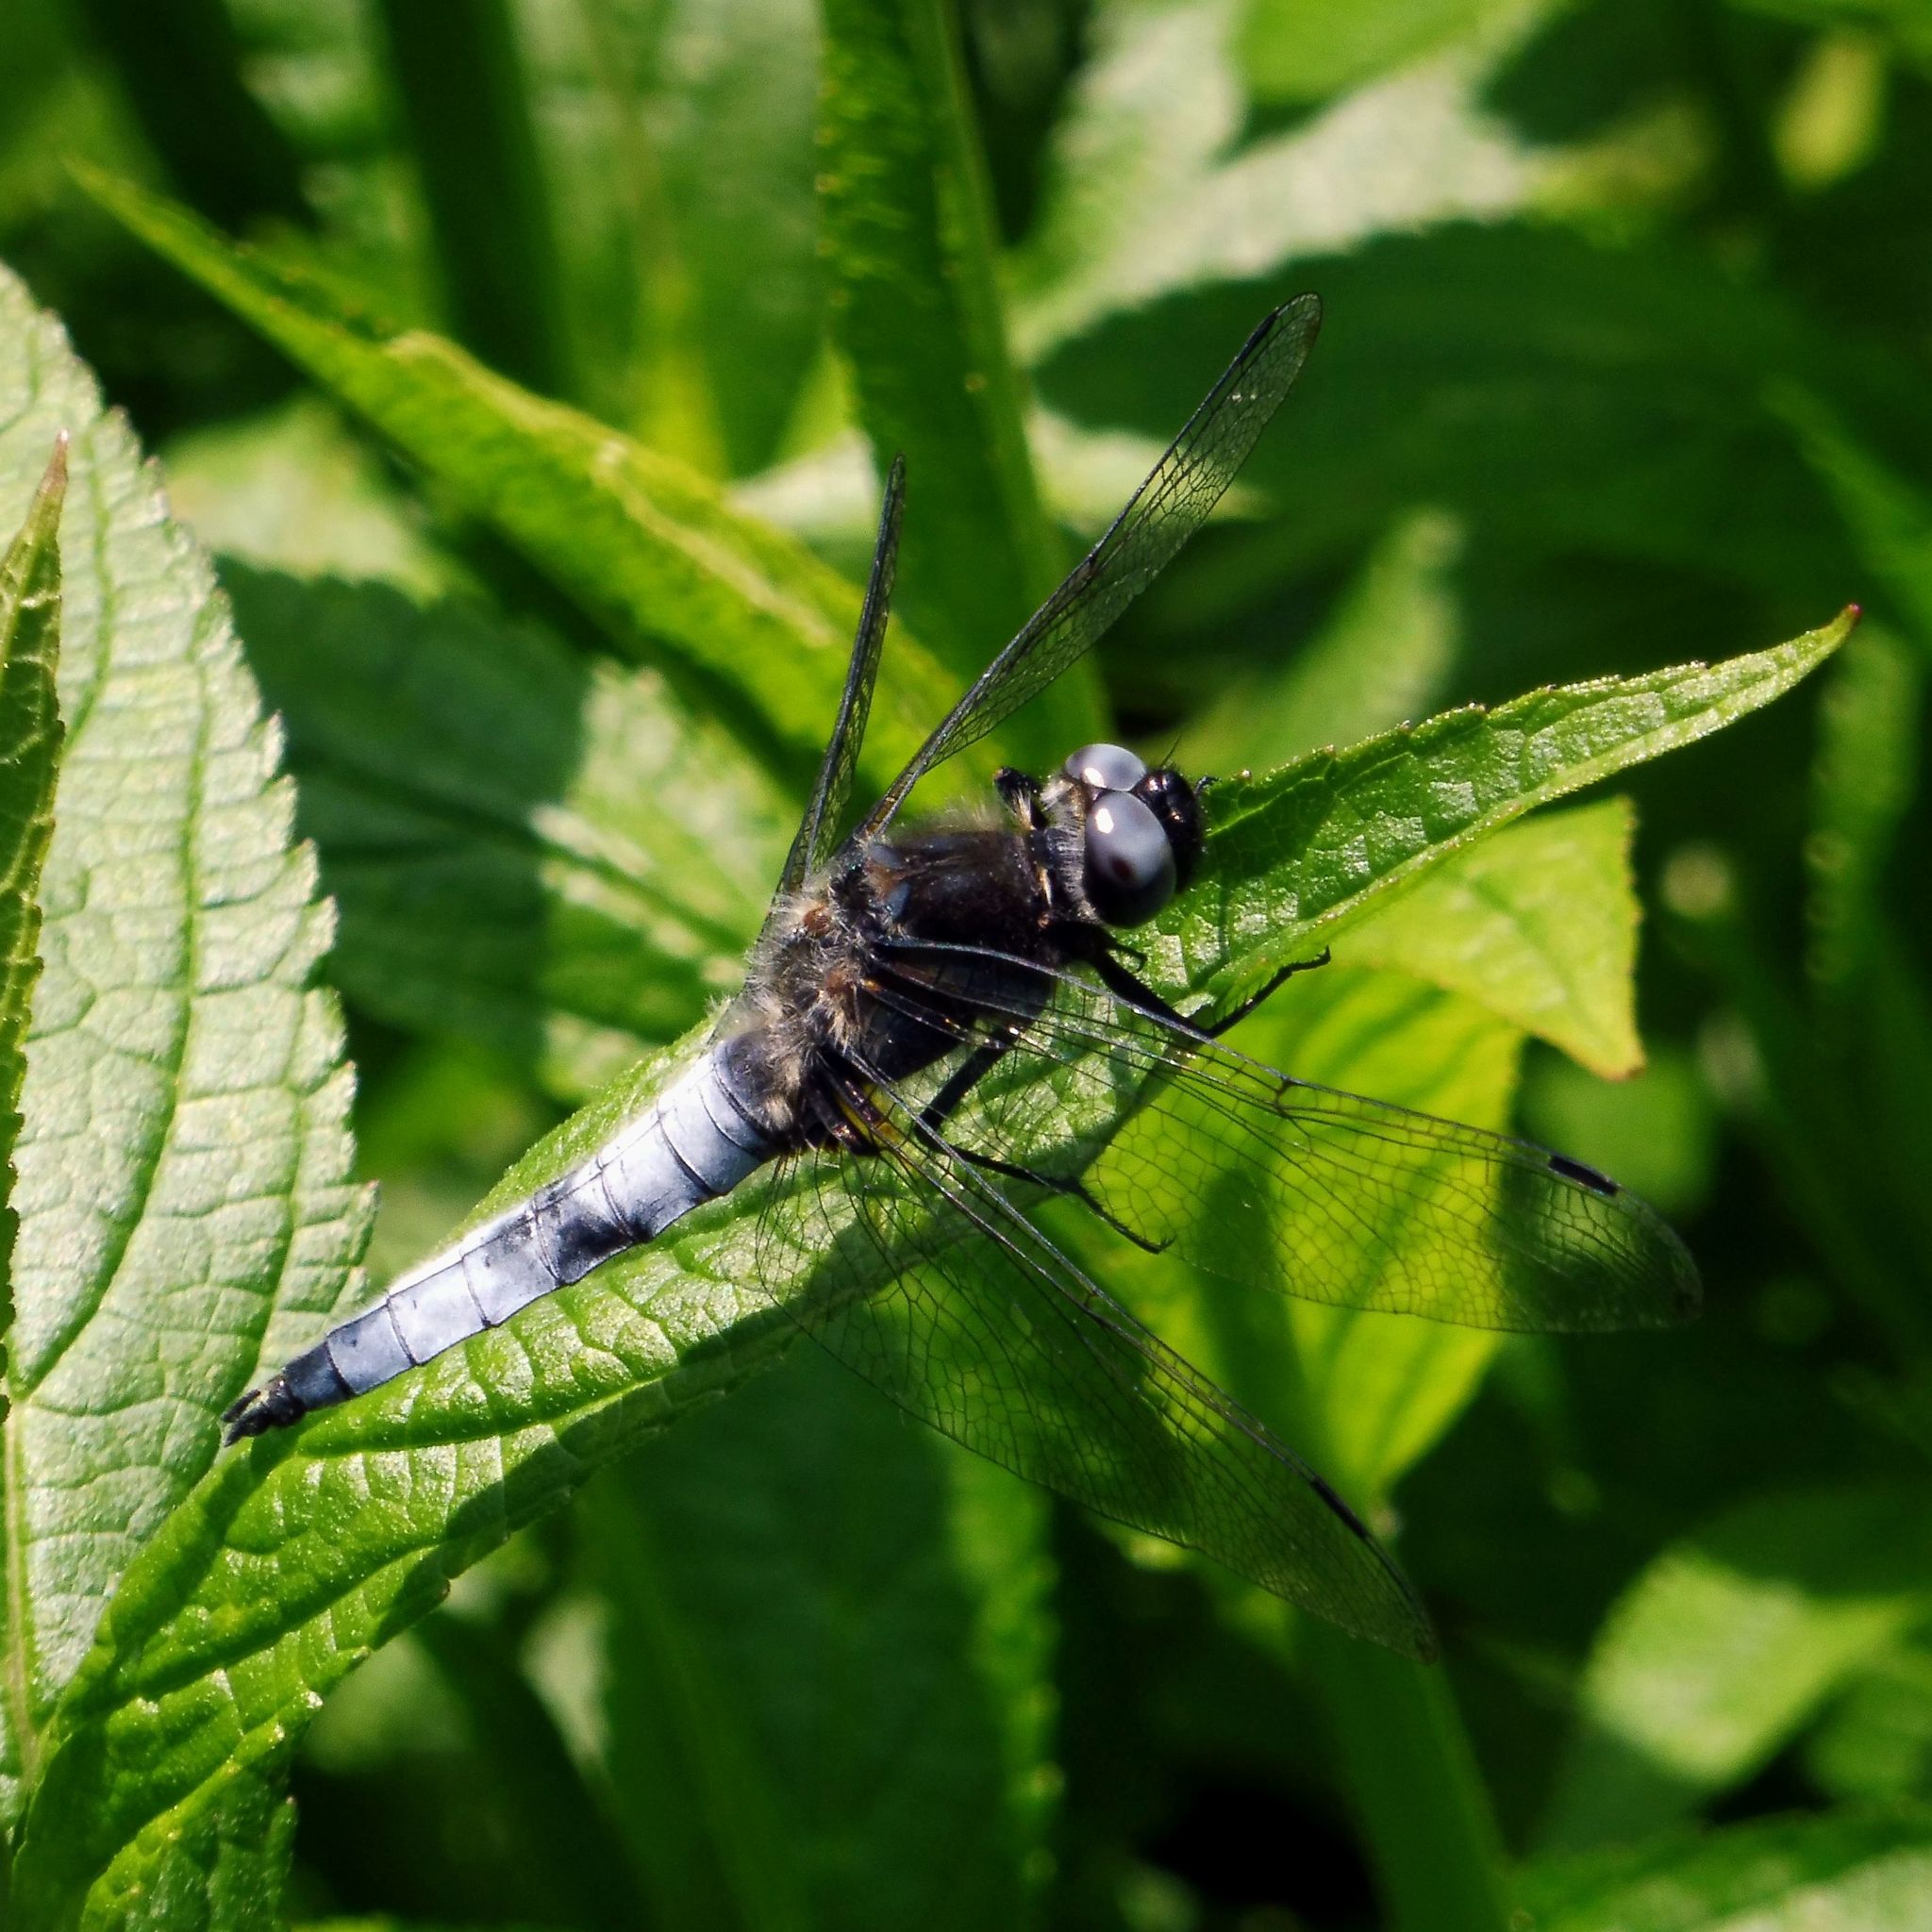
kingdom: Animalia
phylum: Arthropoda
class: Insecta
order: Odonata
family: Libellulidae
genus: Libellula
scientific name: Libellula fulva
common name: Blue chaser
